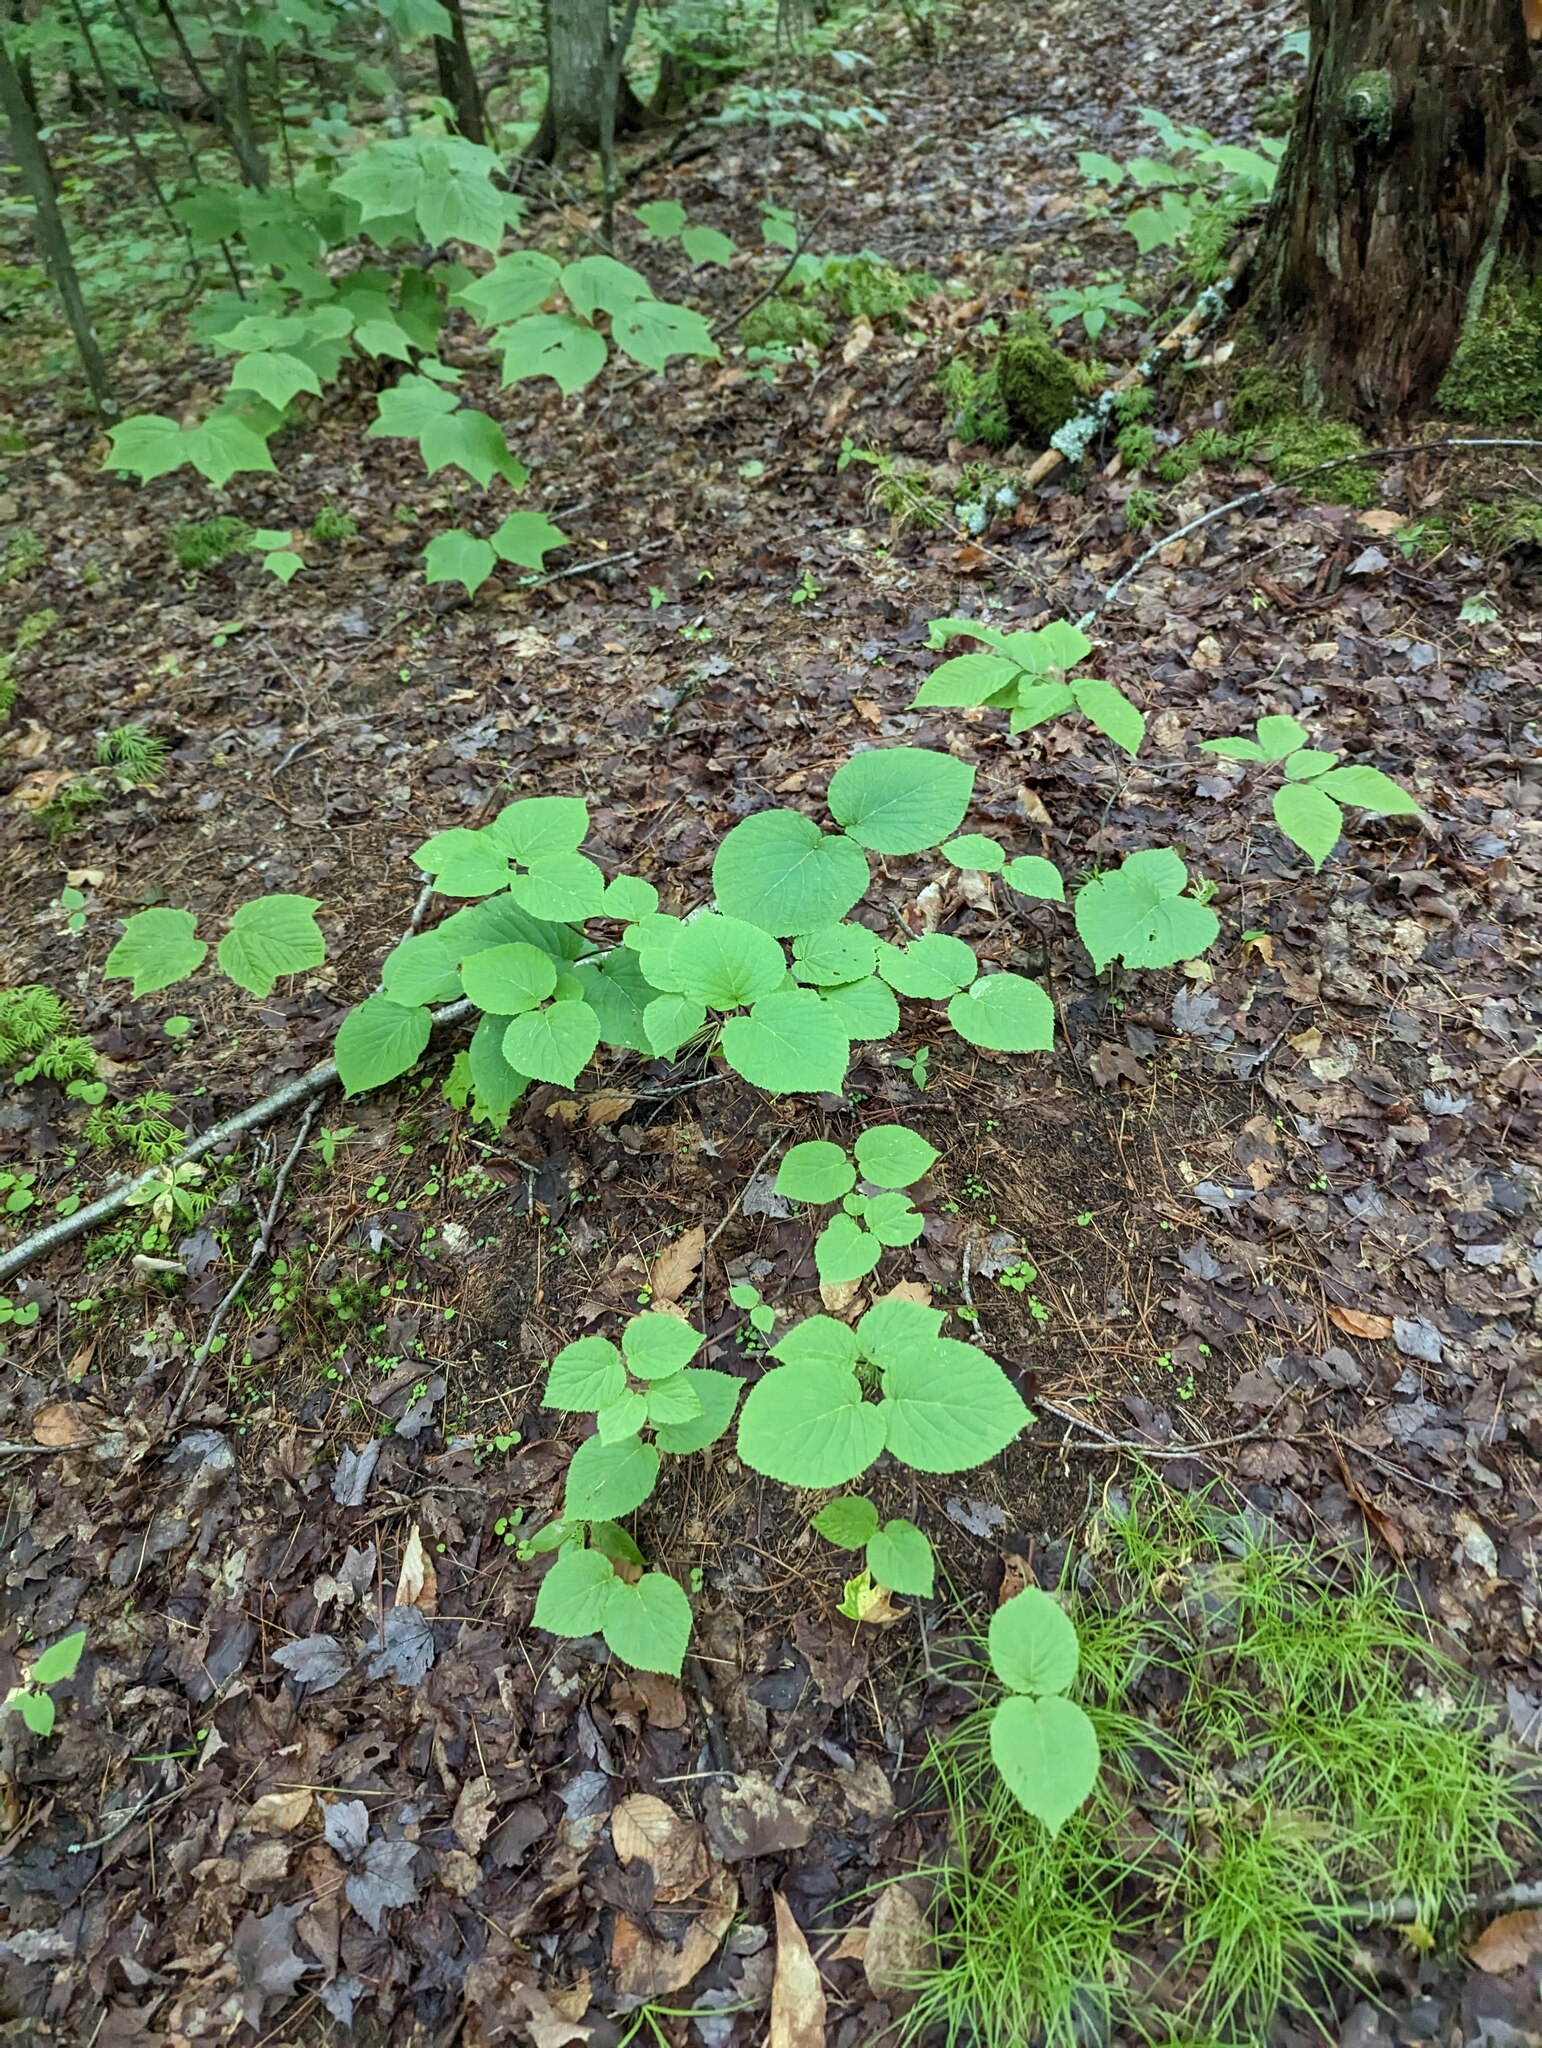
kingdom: Plantae
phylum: Tracheophyta
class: Magnoliopsida
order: Dipsacales
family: Viburnaceae
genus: Viburnum
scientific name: Viburnum lantanoides
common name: Hobblebush
